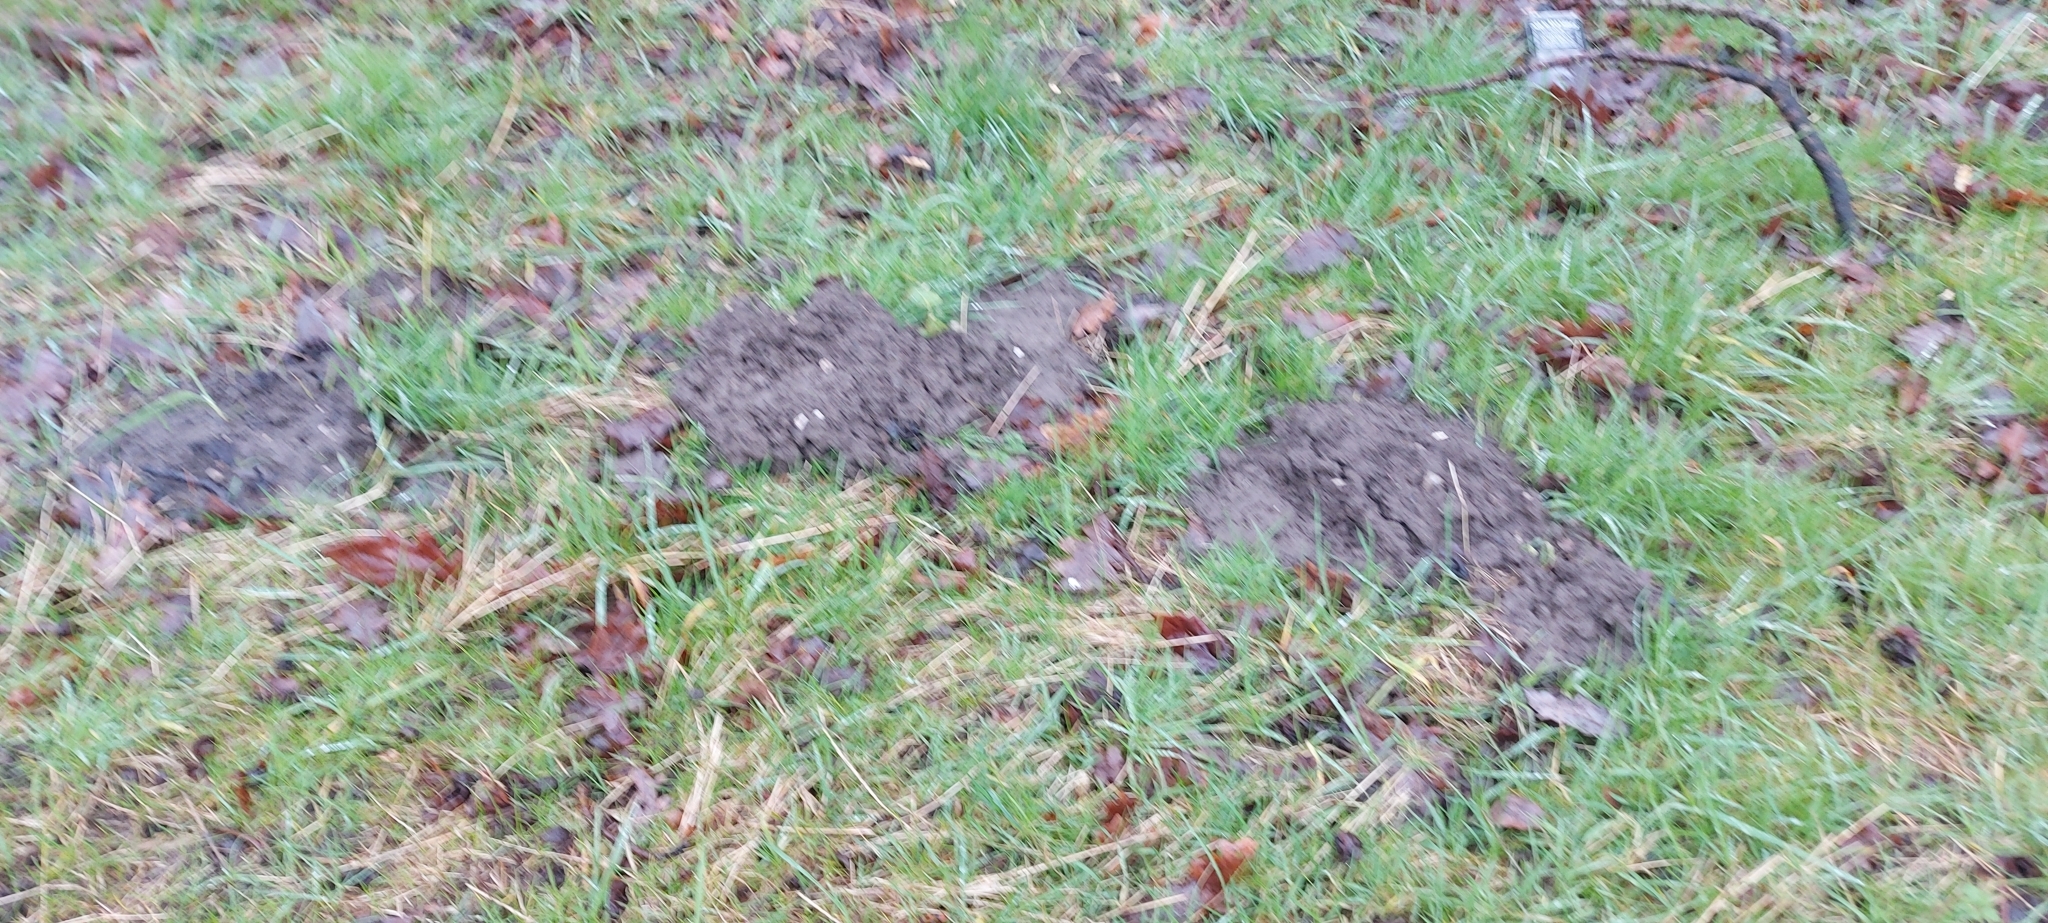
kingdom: Animalia
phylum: Chordata
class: Mammalia
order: Soricomorpha
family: Talpidae
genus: Talpa
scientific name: Talpa europaea
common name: European mole
